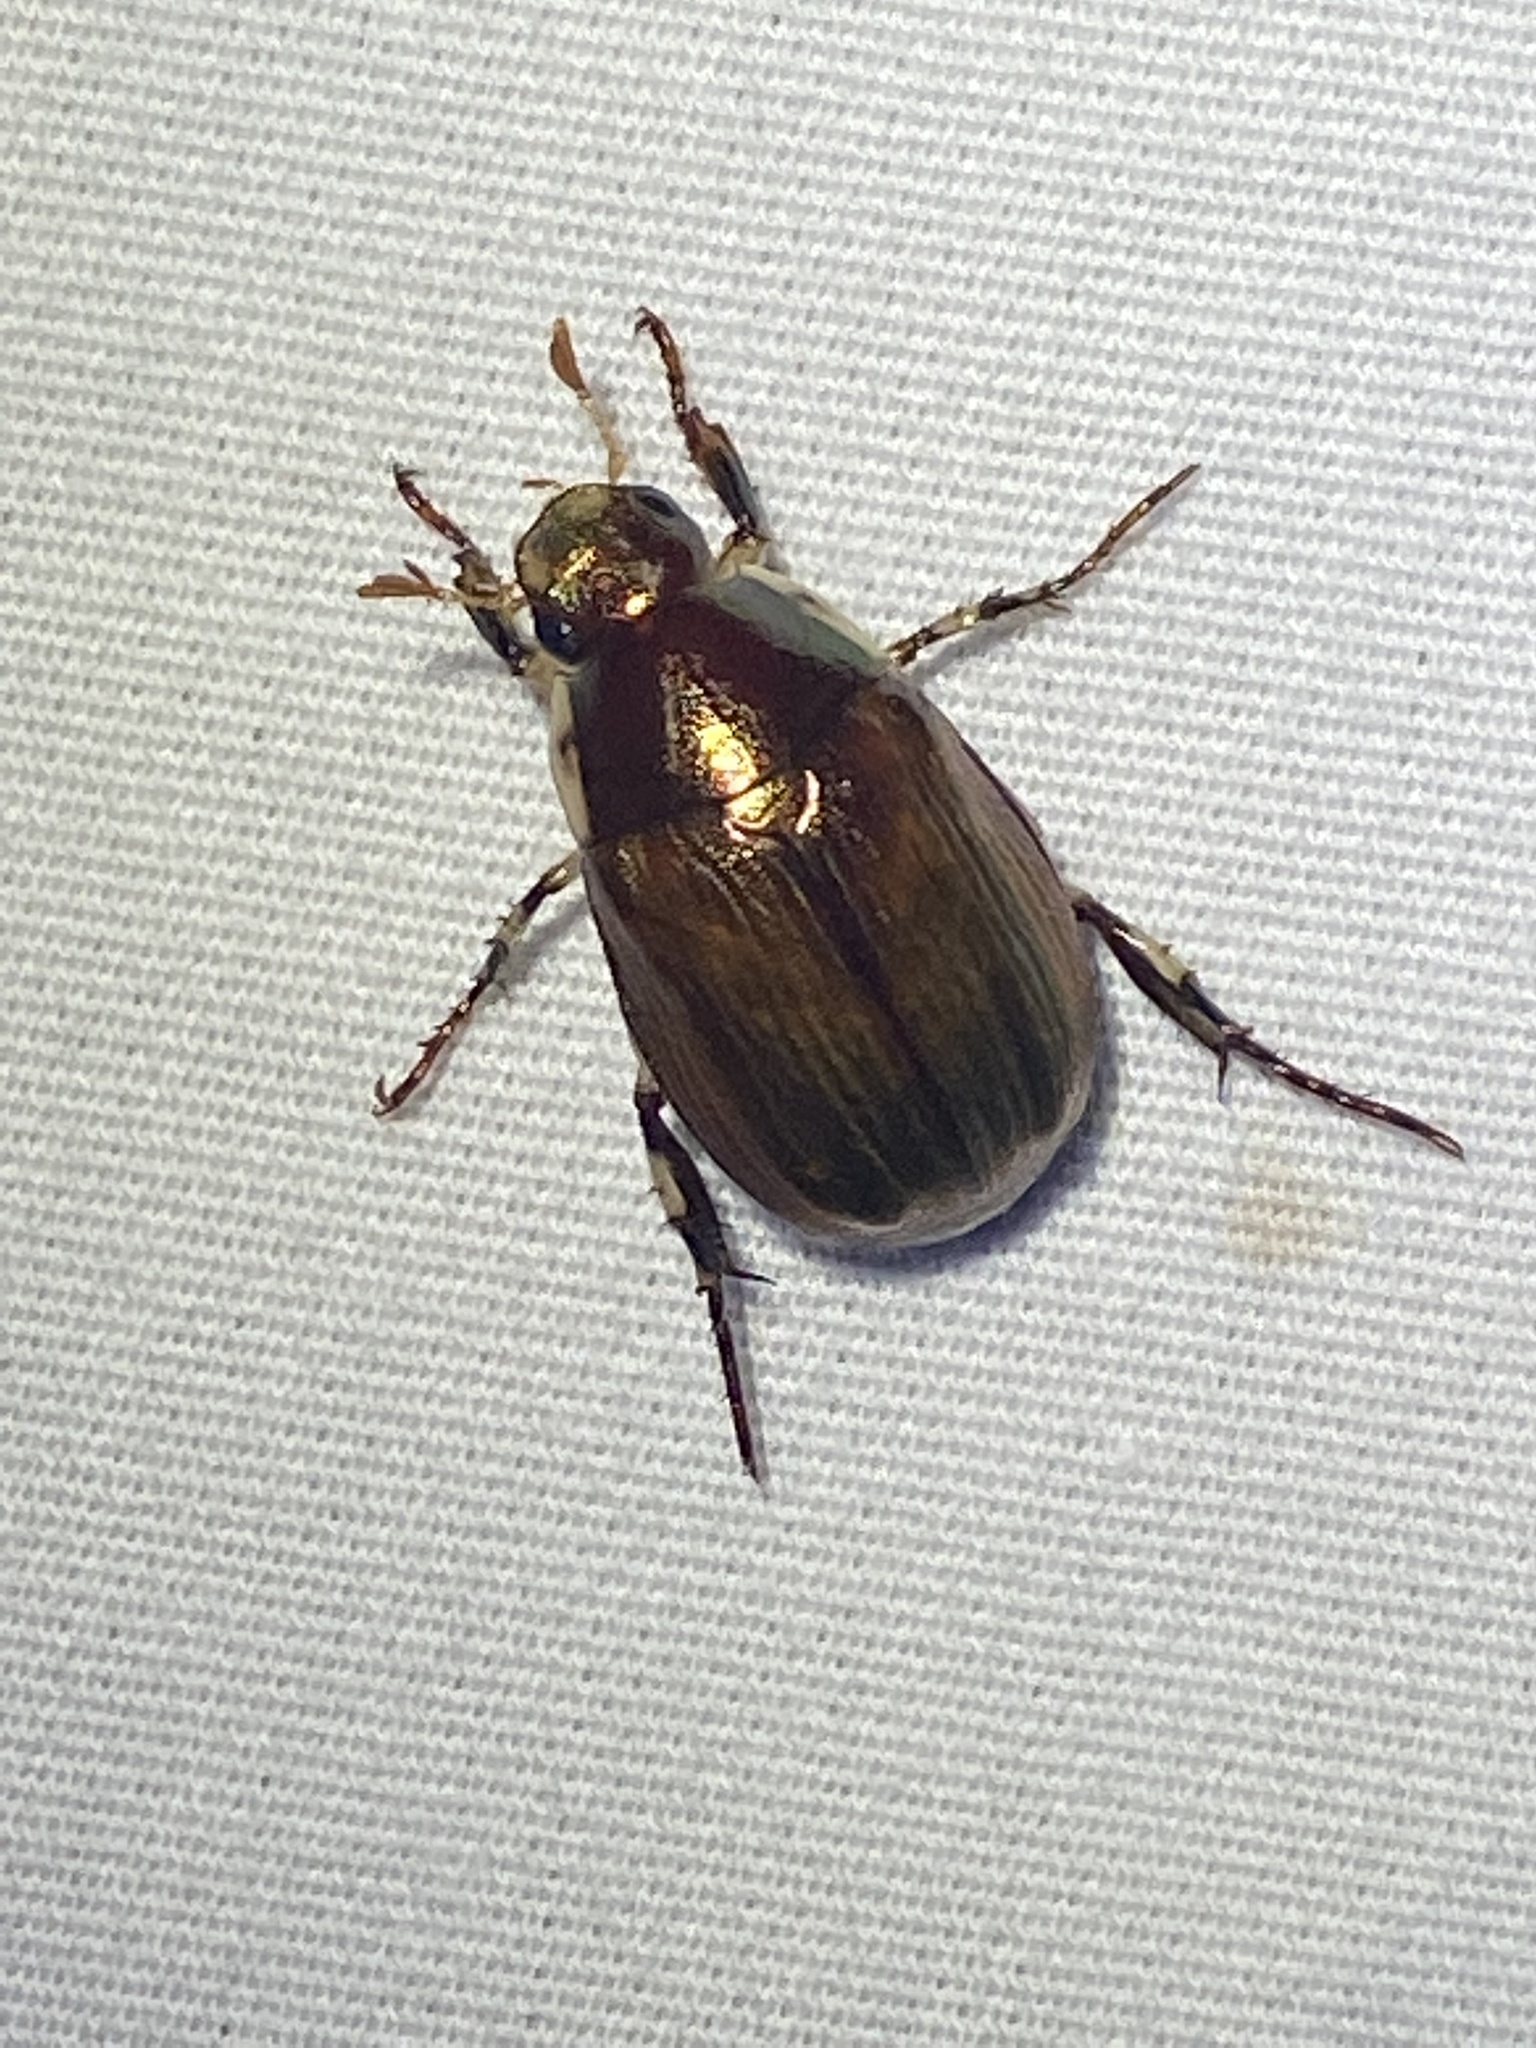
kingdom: Animalia
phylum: Arthropoda
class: Insecta
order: Coleoptera
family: Scarabaeidae
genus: Callistethus
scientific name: Callistethus marginatus
